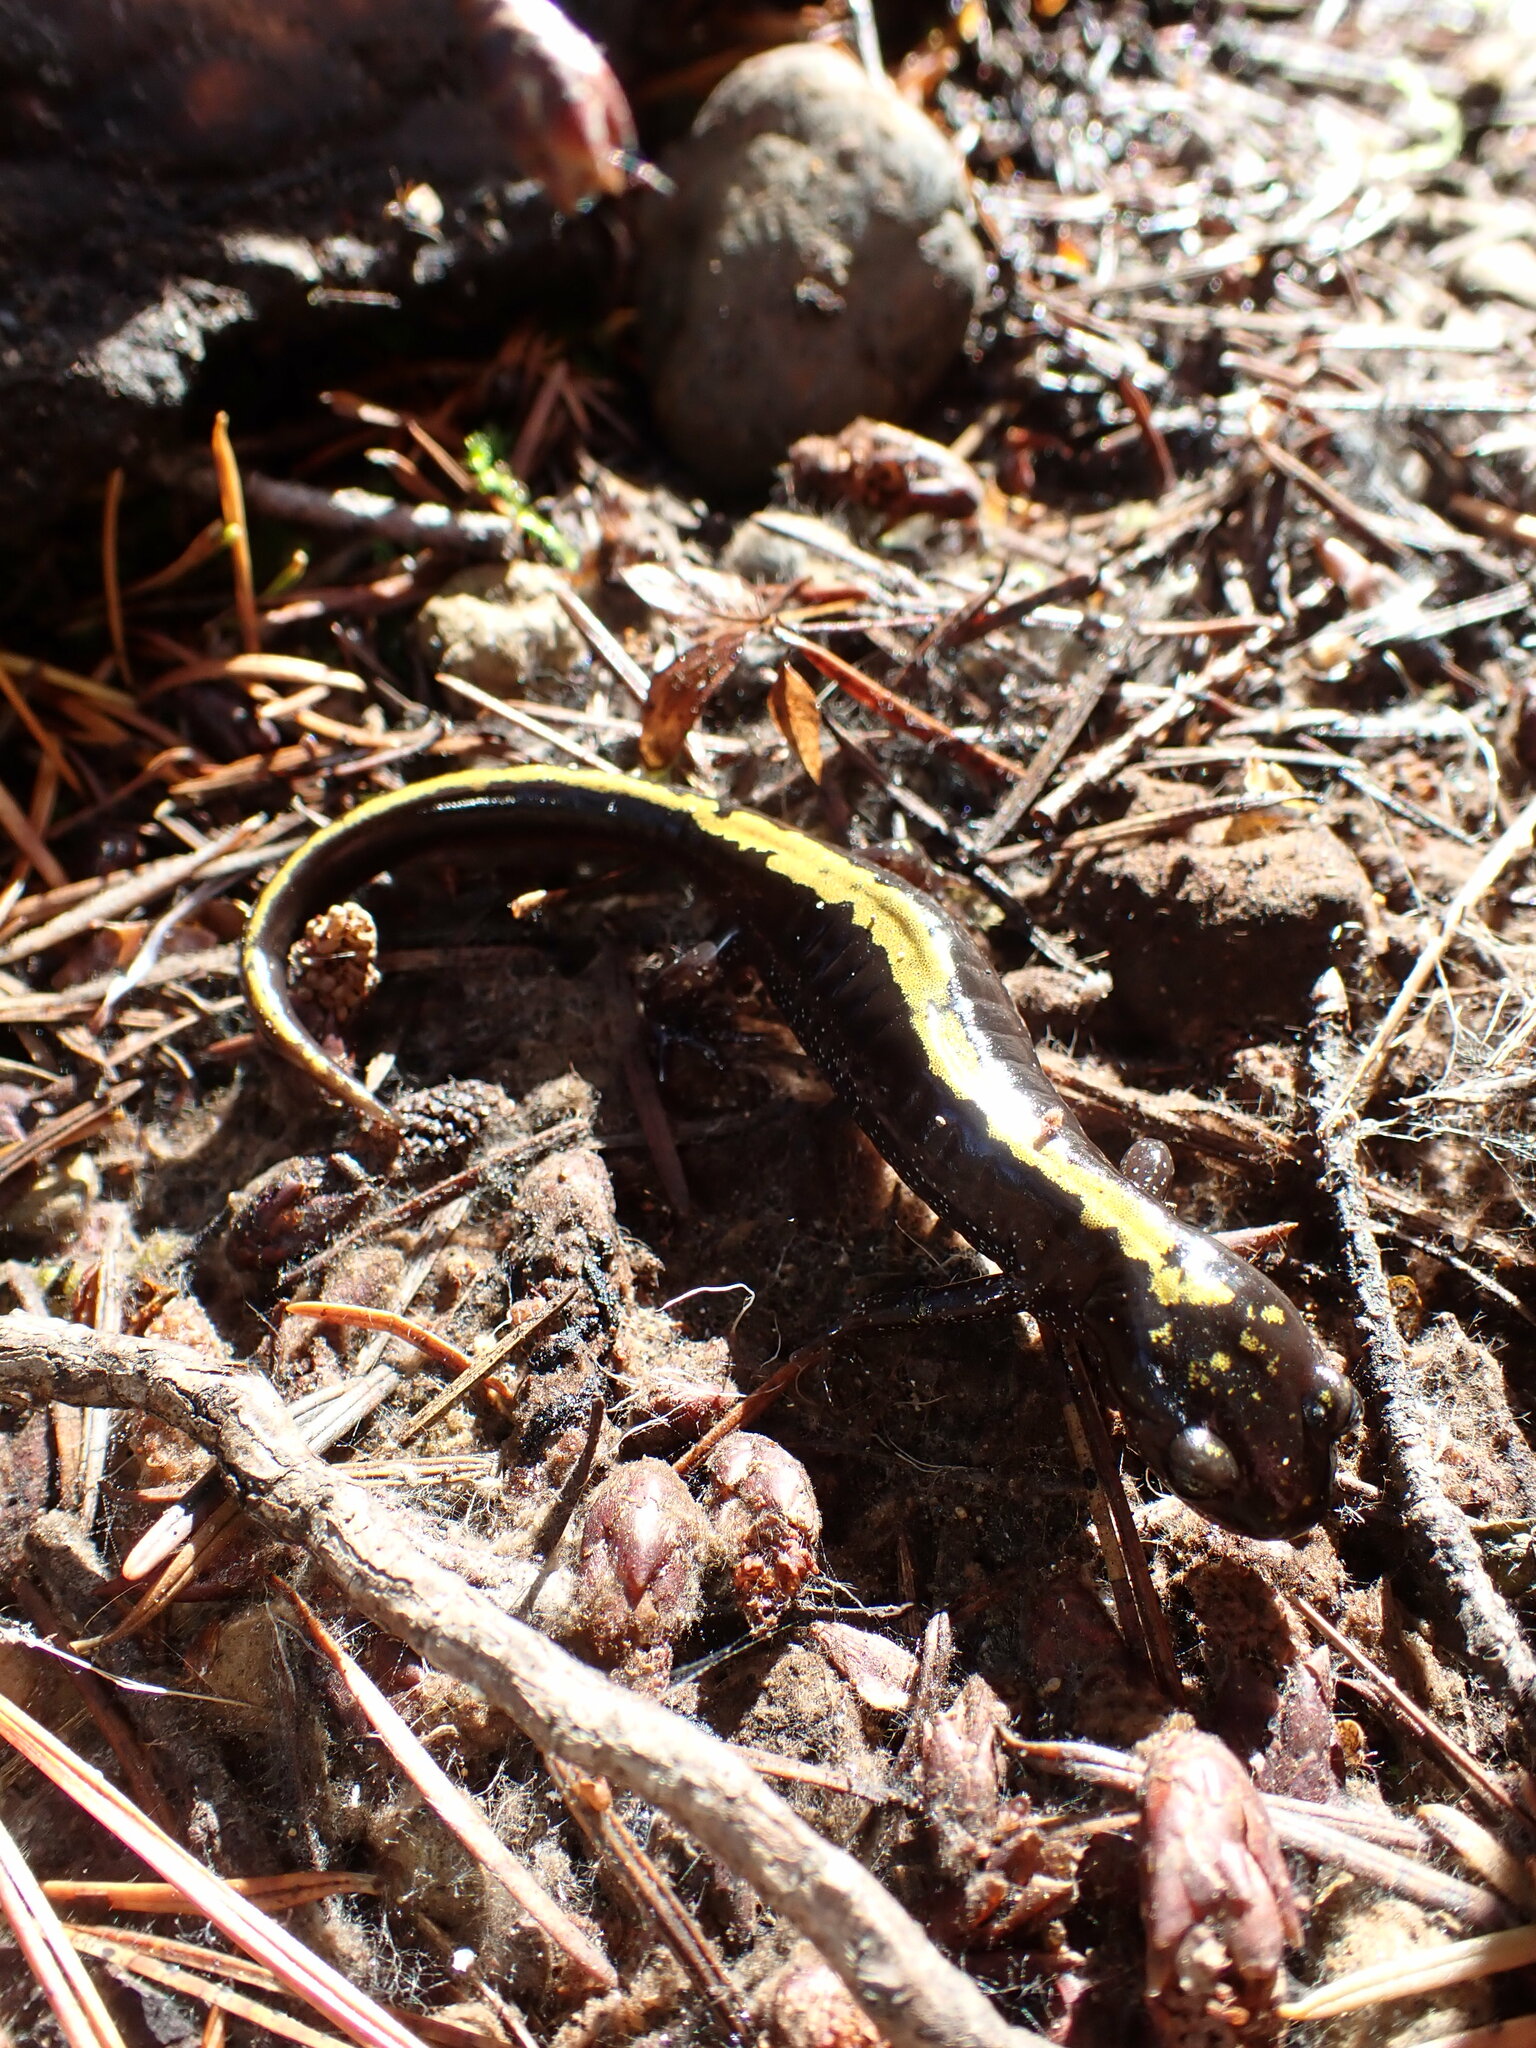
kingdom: Animalia
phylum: Chordata
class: Amphibia
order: Caudata
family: Ambystomatidae
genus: Ambystoma
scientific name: Ambystoma macrodactylum
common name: Long-toed salamander
